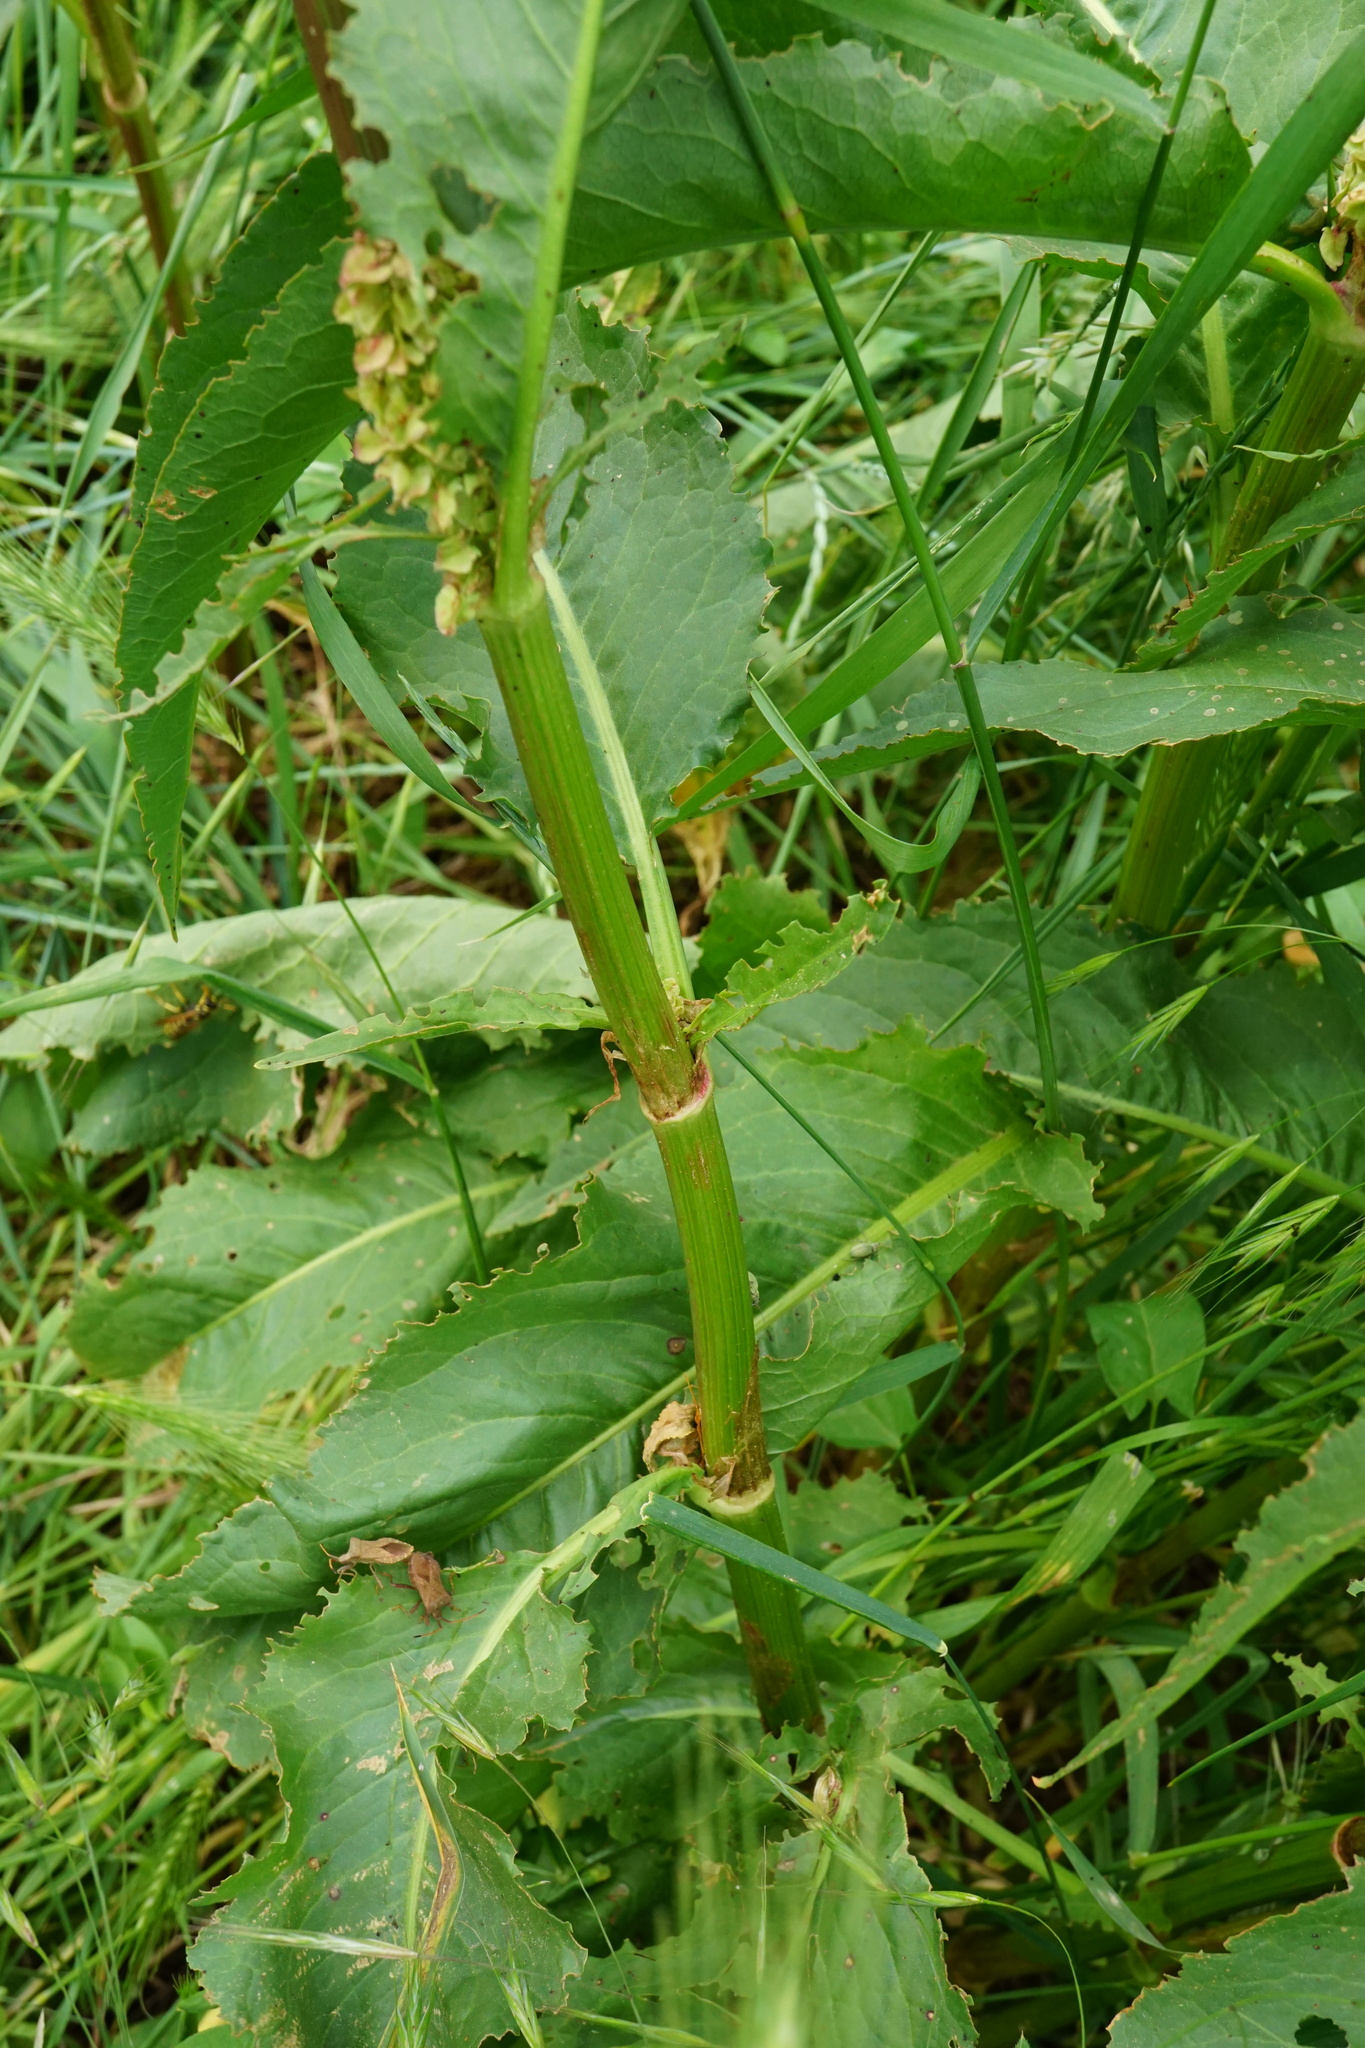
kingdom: Plantae
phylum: Tracheophyta
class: Magnoliopsida
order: Caryophyllales
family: Polygonaceae
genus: Rumex
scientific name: Rumex patientia
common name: Patience dock
